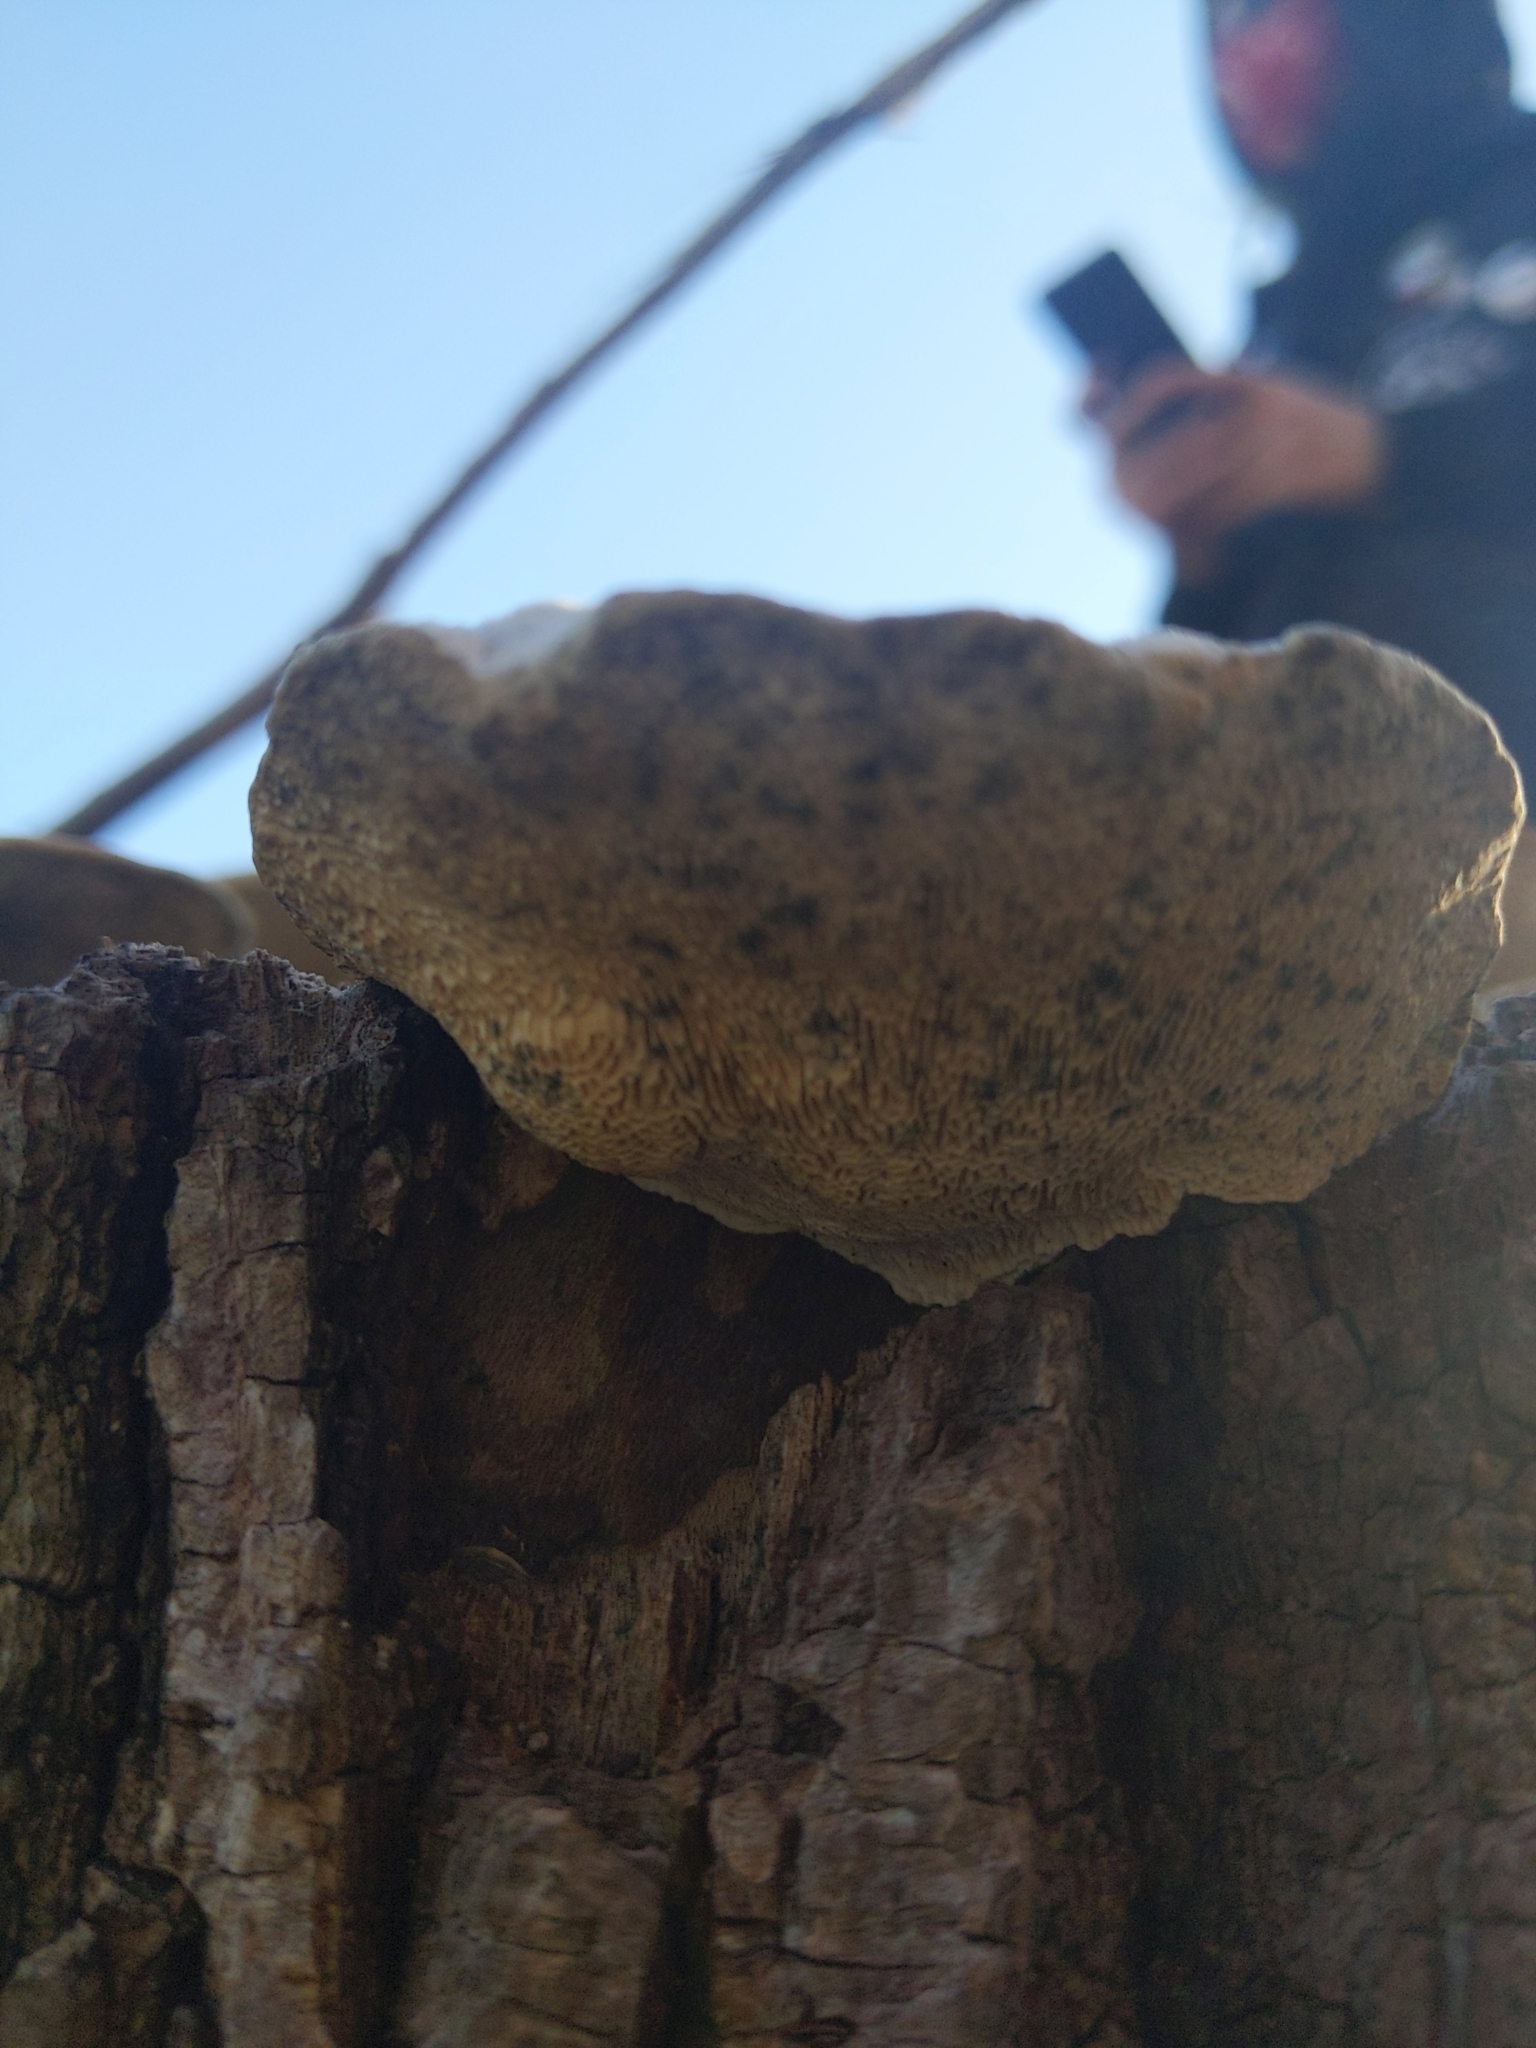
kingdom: Fungi
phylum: Basidiomycota
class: Agaricomycetes
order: Polyporales
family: Polyporaceae
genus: Trametes
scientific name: Trametes gibbosa
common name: Lumpy bracket
